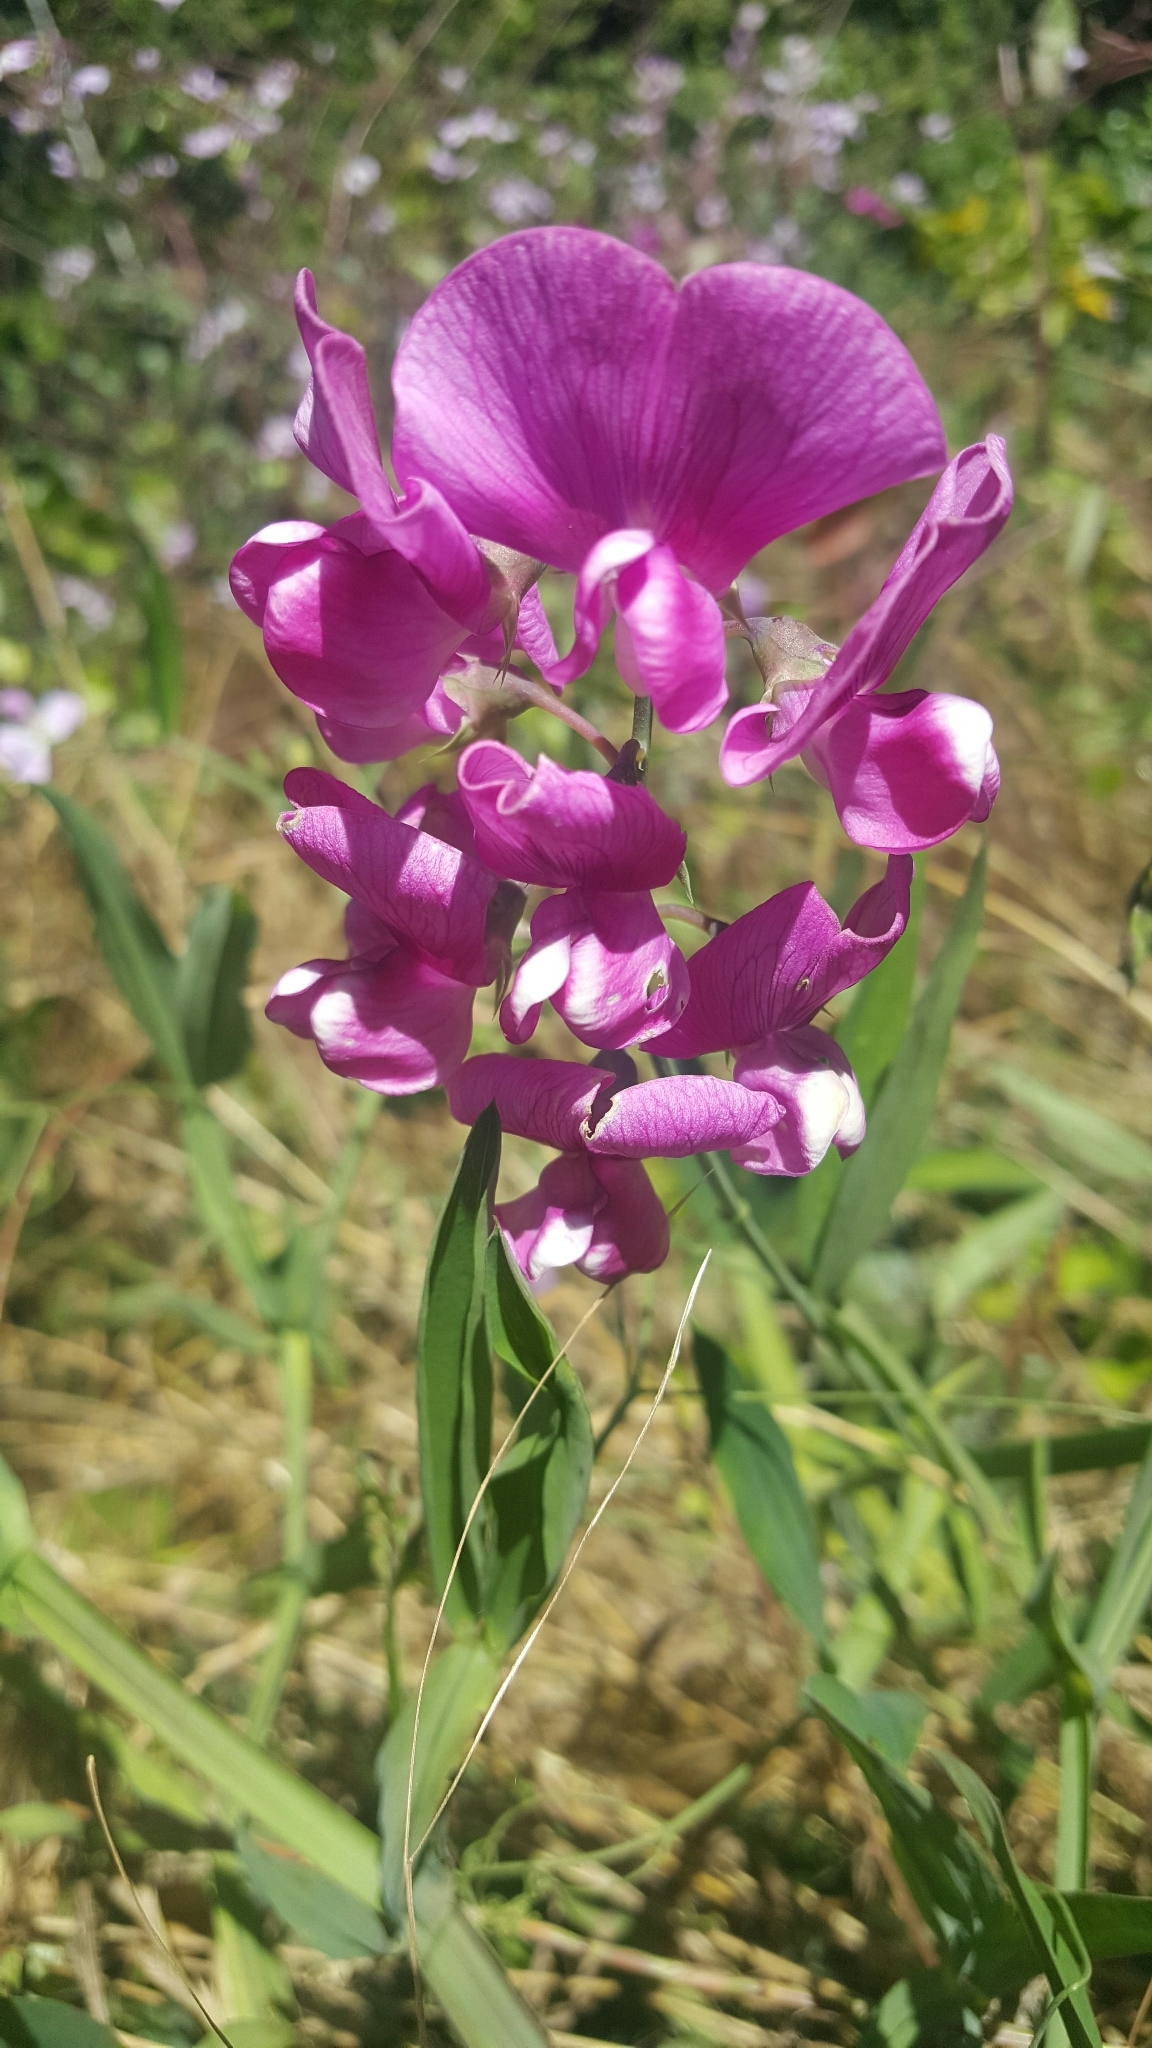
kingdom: Plantae
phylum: Tracheophyta
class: Magnoliopsida
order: Fabales
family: Fabaceae
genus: Lathyrus
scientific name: Lathyrus latifolius
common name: Perennial pea
